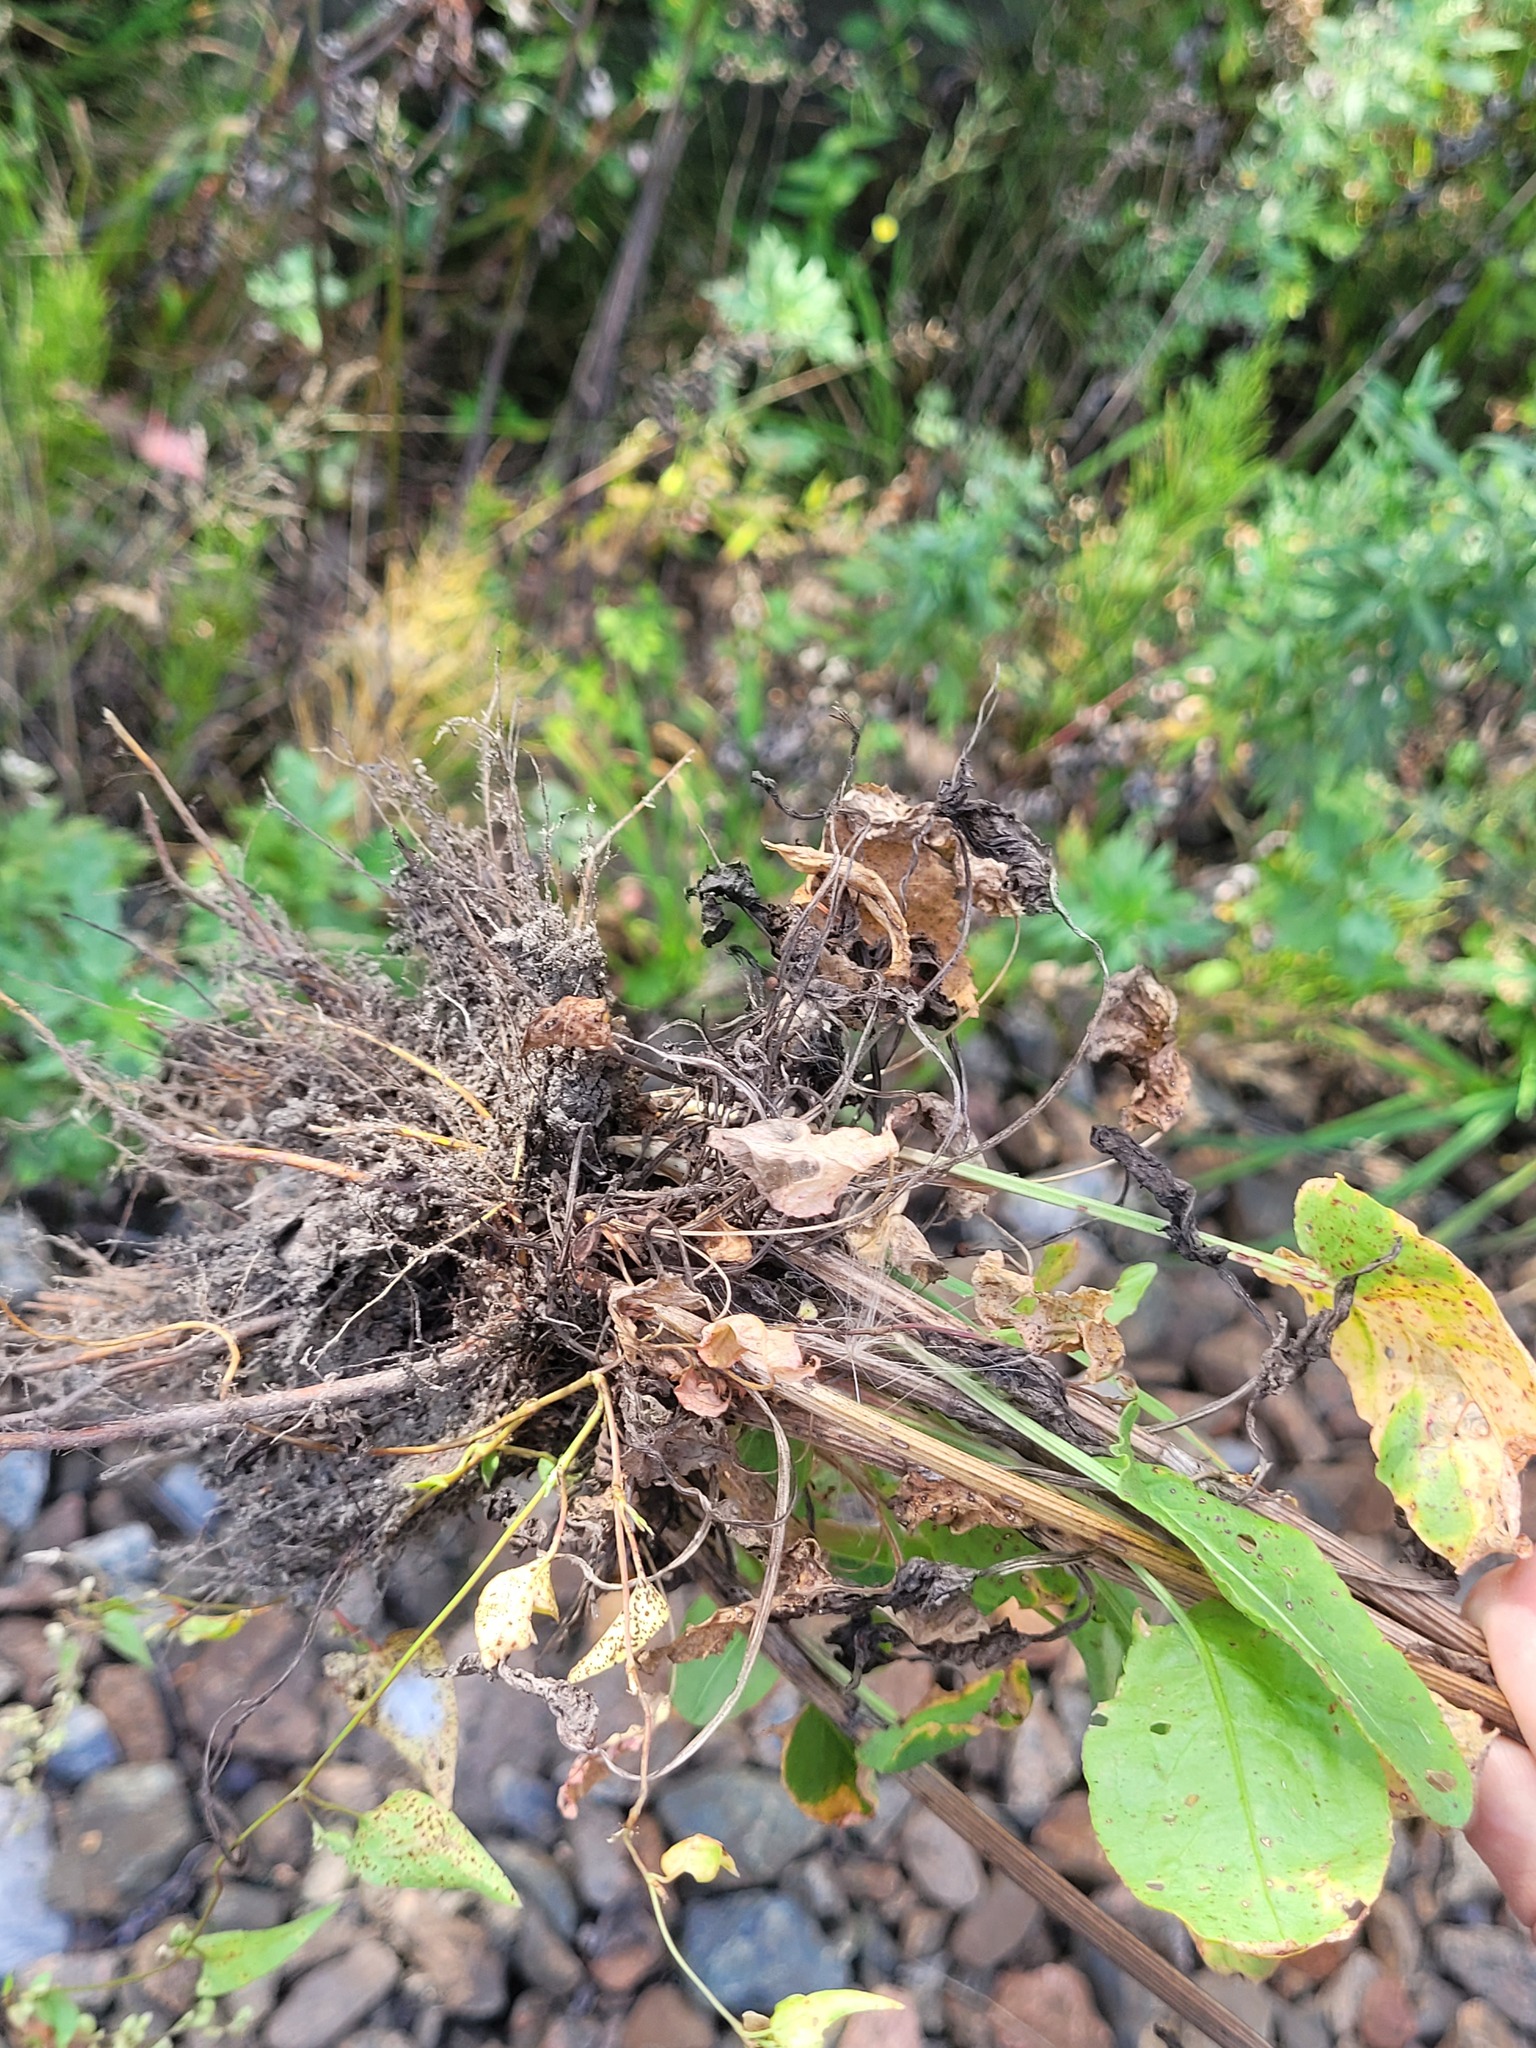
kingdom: Plantae
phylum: Tracheophyta
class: Magnoliopsida
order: Caryophyllales
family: Polygonaceae
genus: Rumex
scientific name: Rumex acetosa
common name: Garden sorrel
